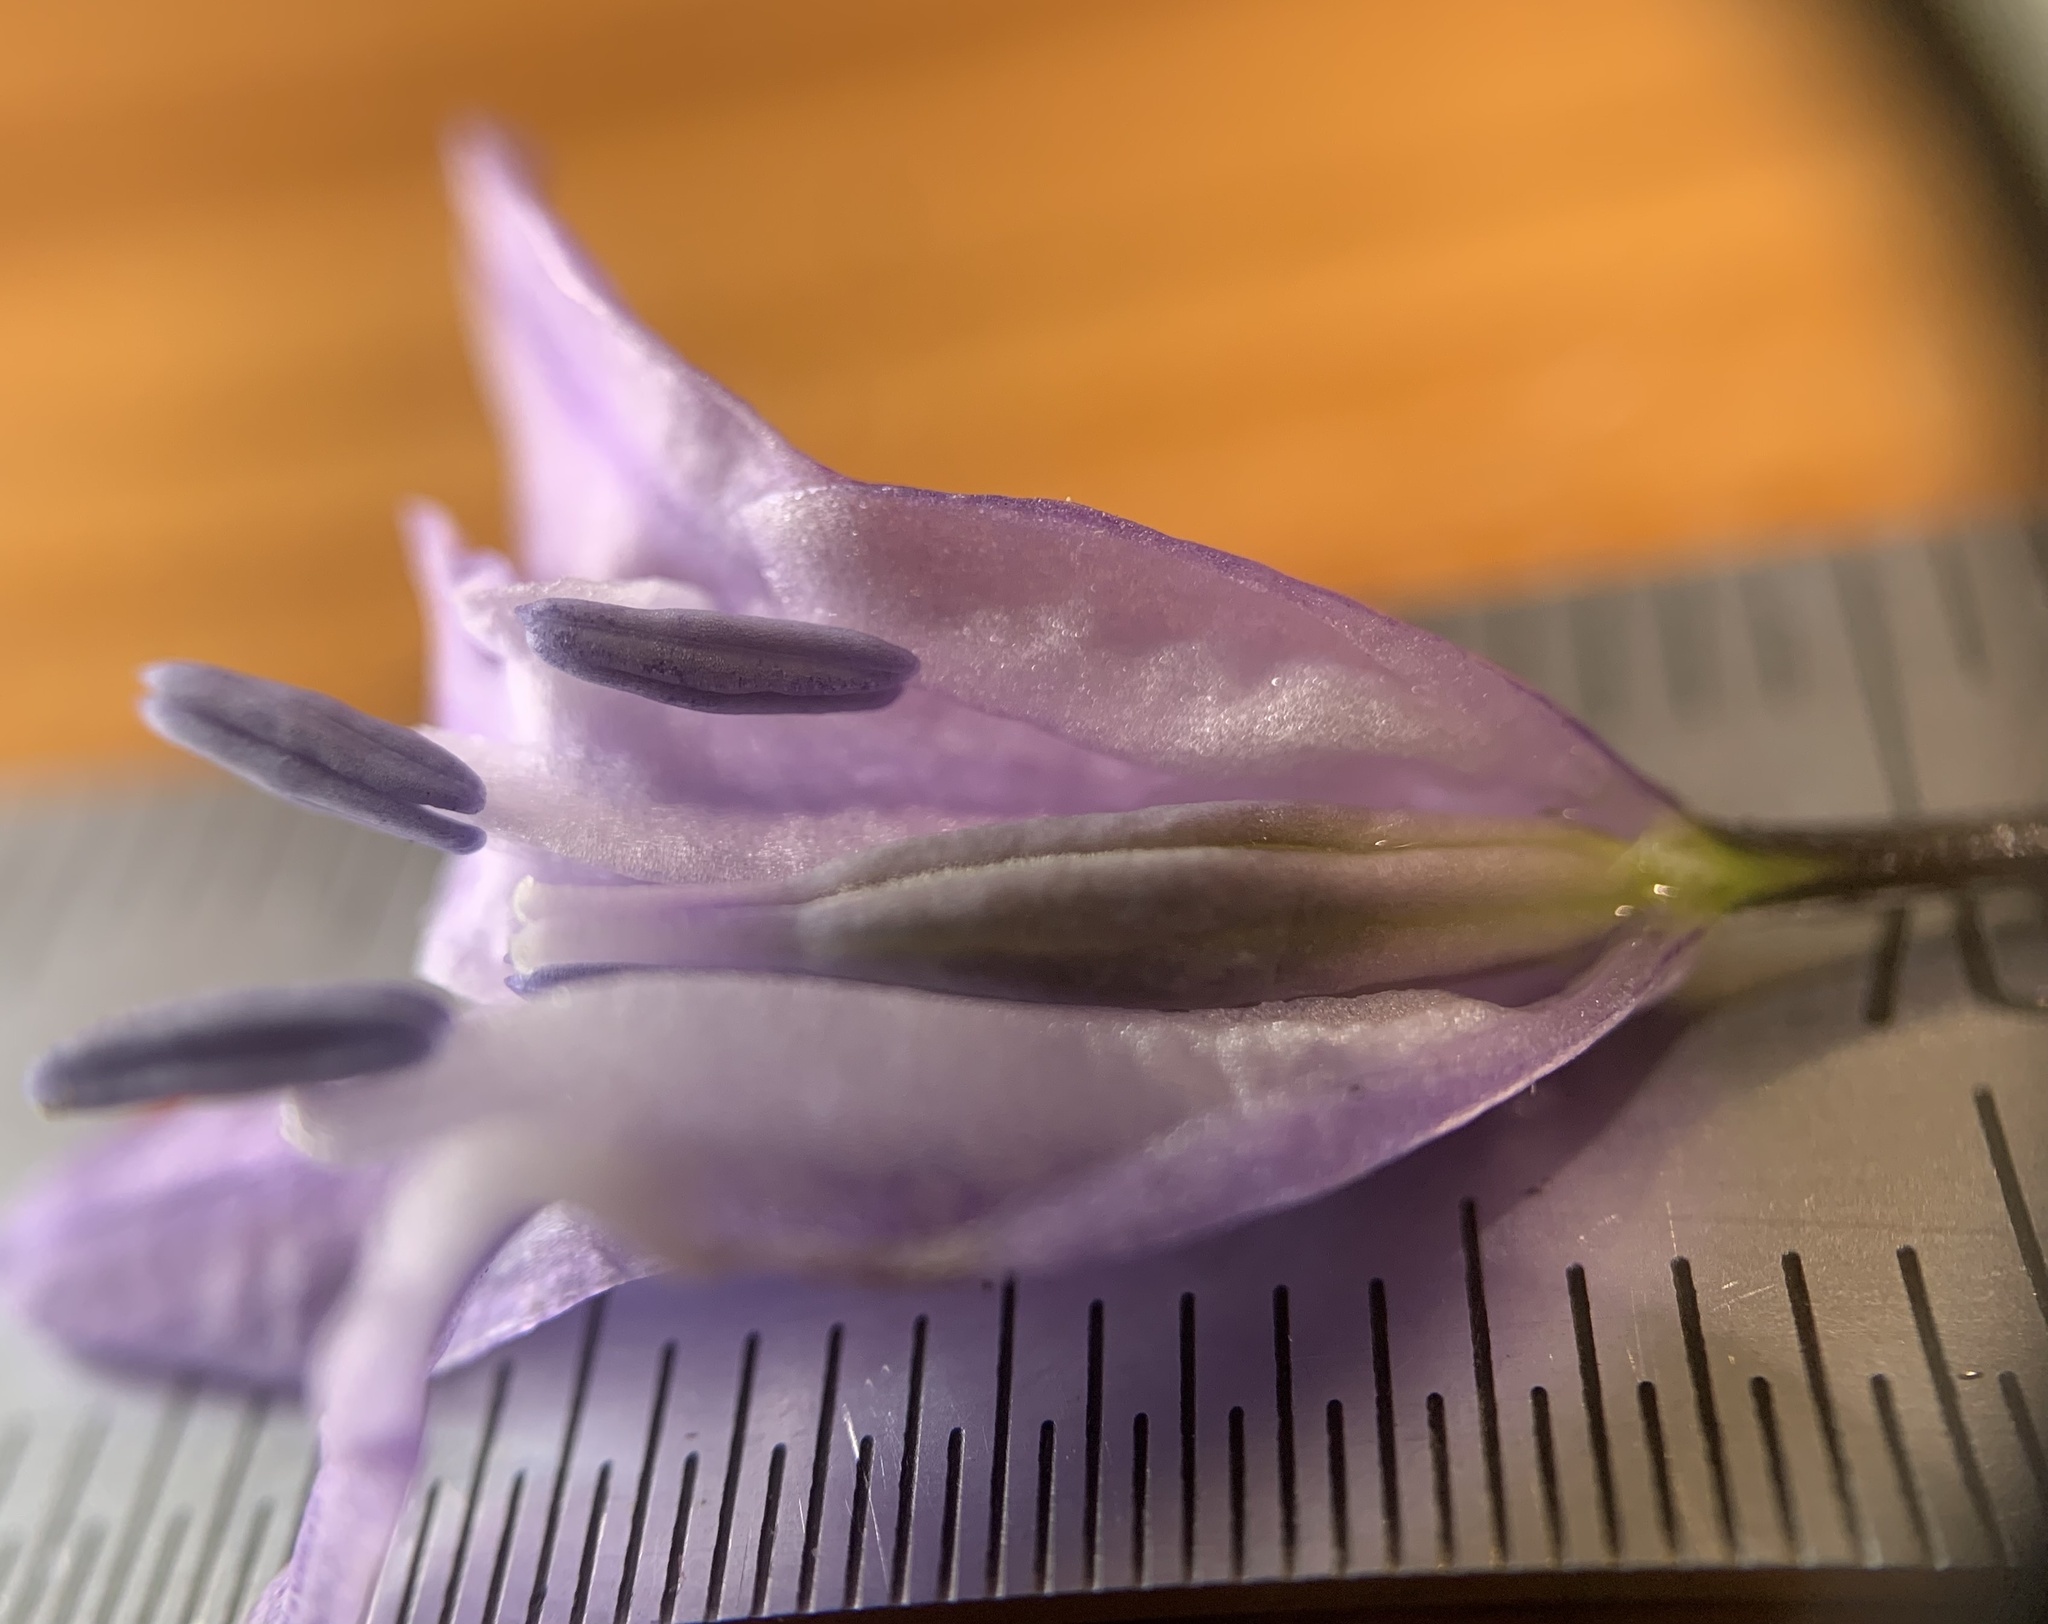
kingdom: Plantae
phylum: Tracheophyta
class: Liliopsida
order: Asparagales
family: Asparagaceae
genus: Triteleia
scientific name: Triteleia grandiflora
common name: Wild hyacinth
